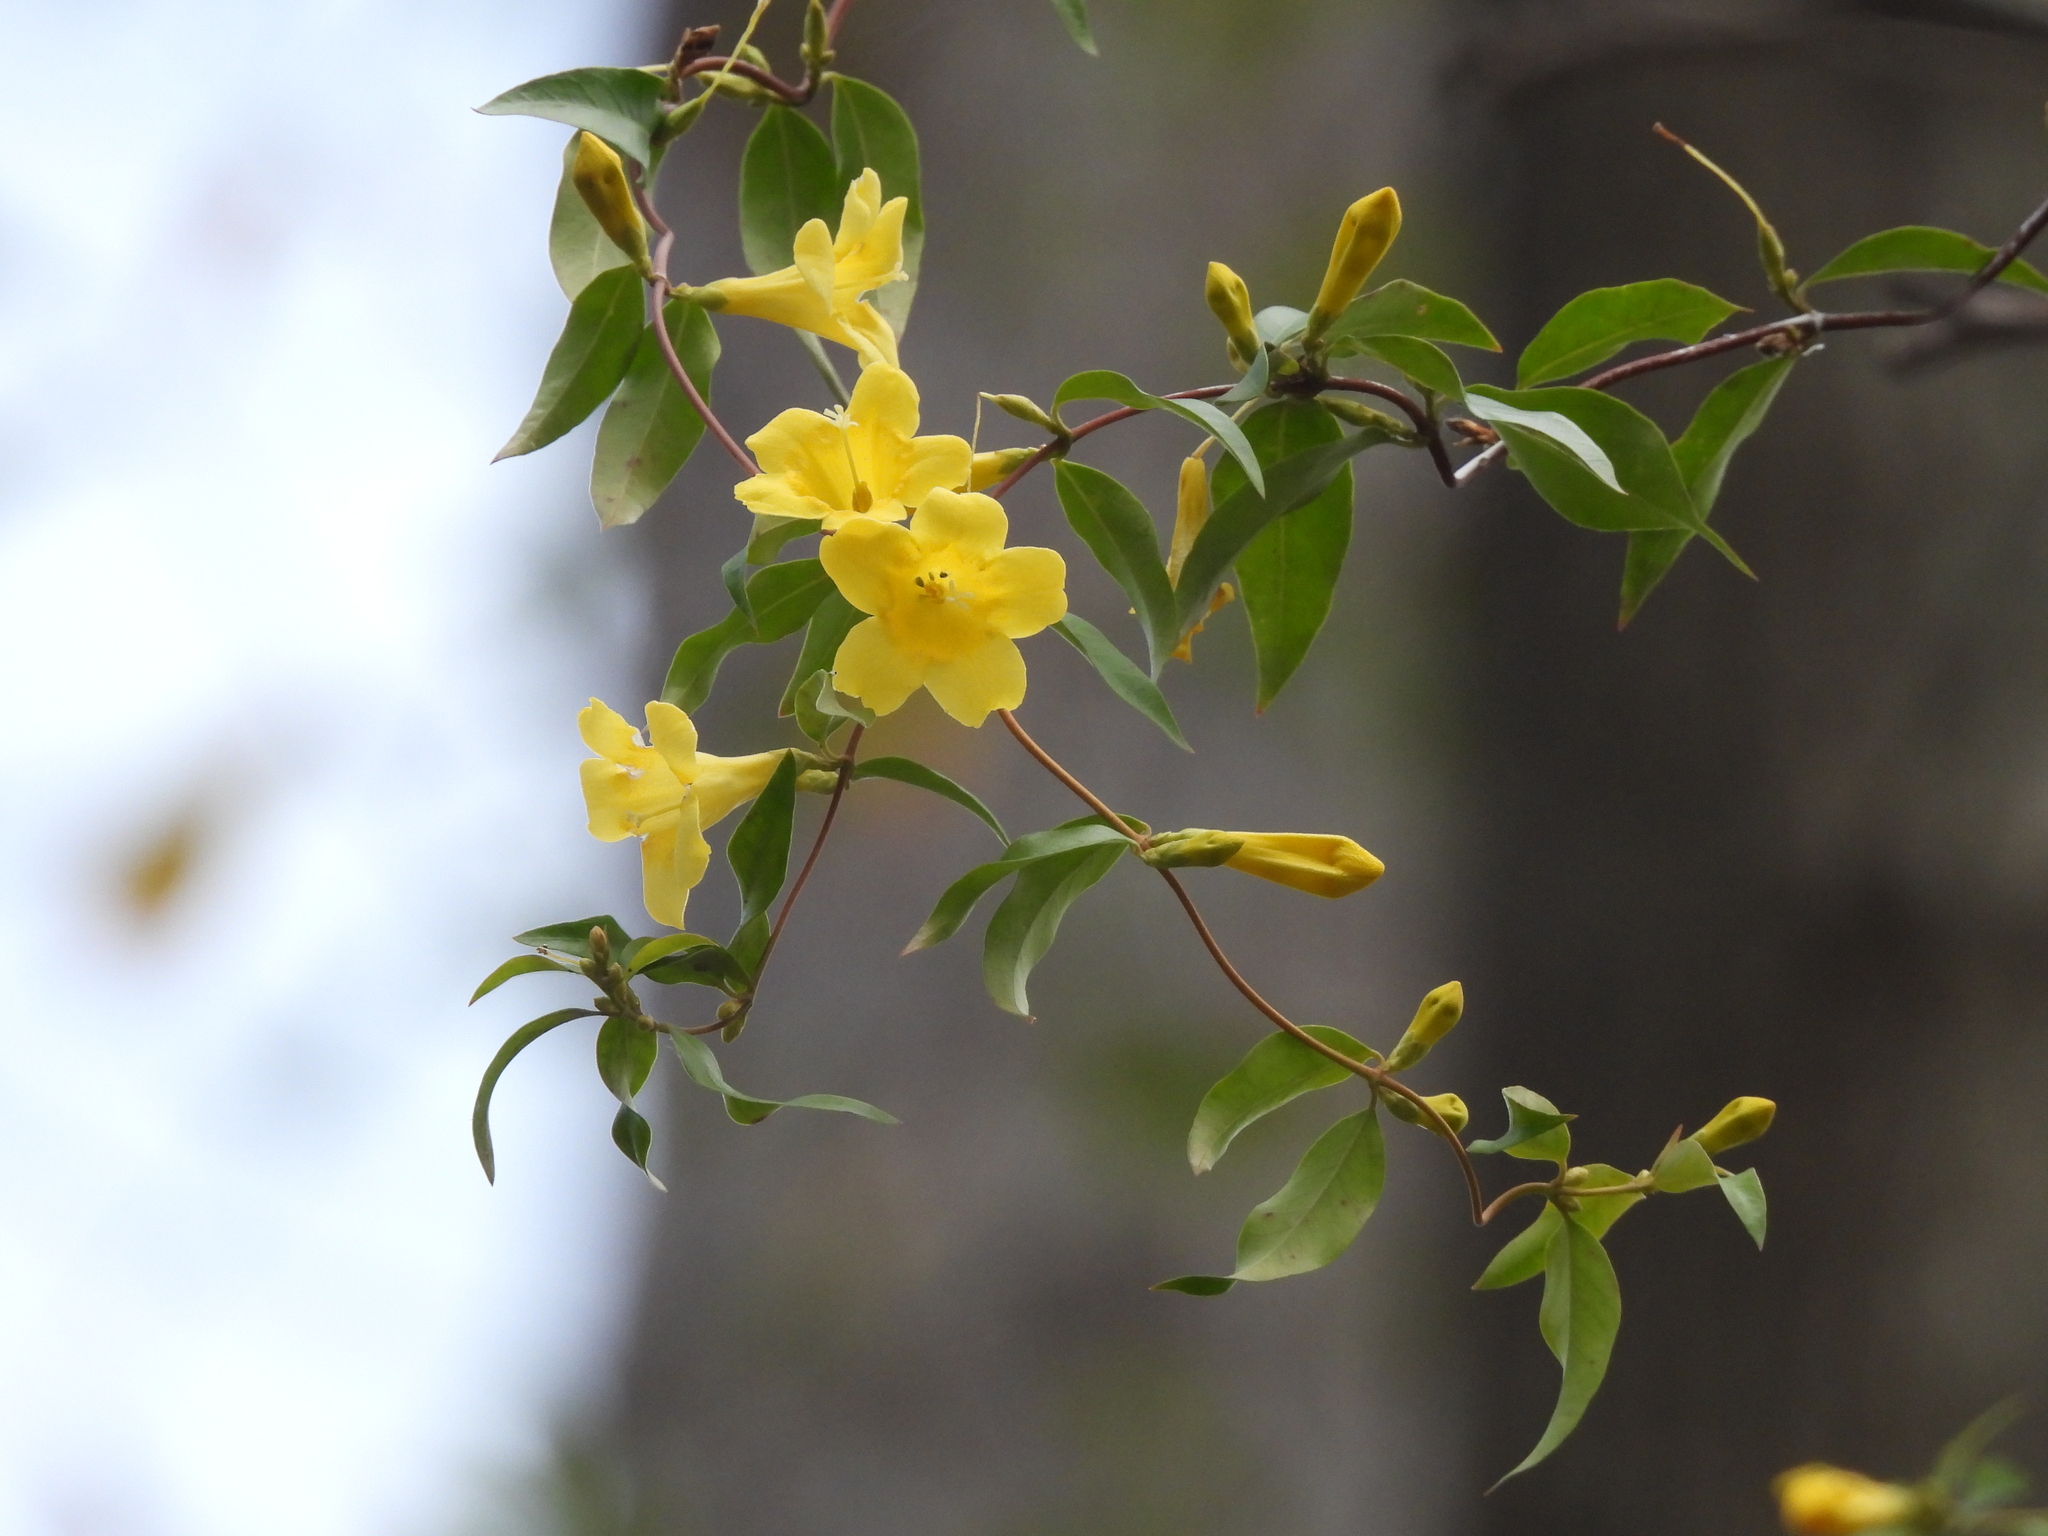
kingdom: Plantae
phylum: Tracheophyta
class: Magnoliopsida
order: Gentianales
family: Gelsemiaceae
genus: Gelsemium
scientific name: Gelsemium sempervirens
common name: Carolina-jasmine
